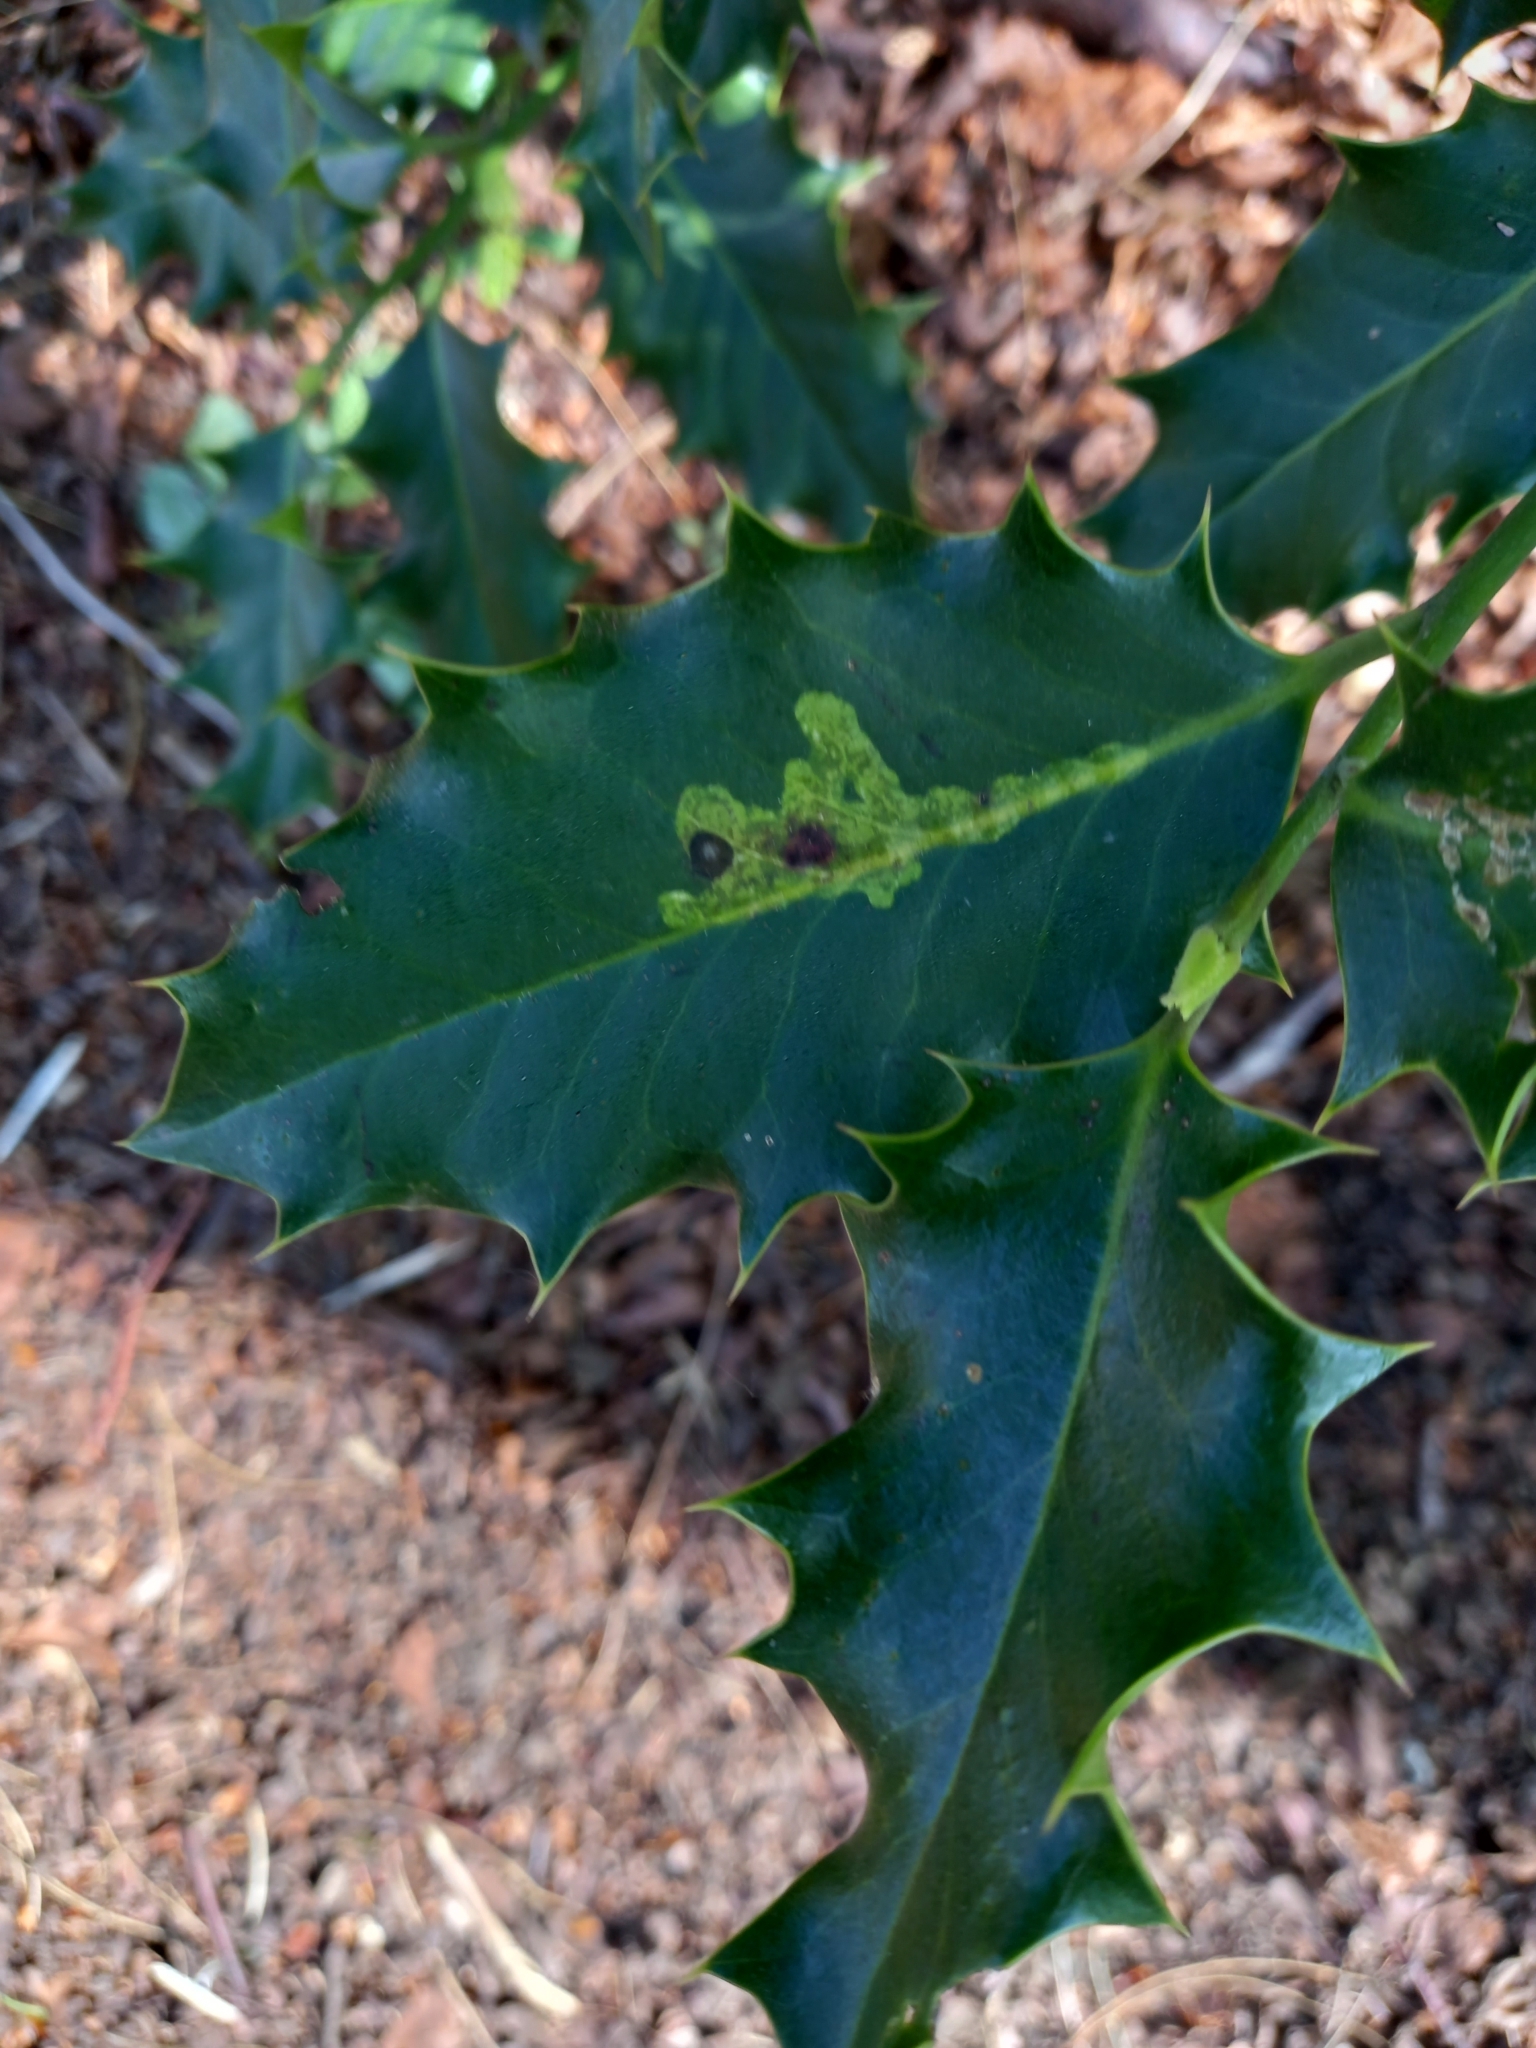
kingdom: Animalia
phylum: Arthropoda
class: Insecta
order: Diptera
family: Agromyzidae
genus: Phytomyza
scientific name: Phytomyza ilicis
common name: Holly leafminer
